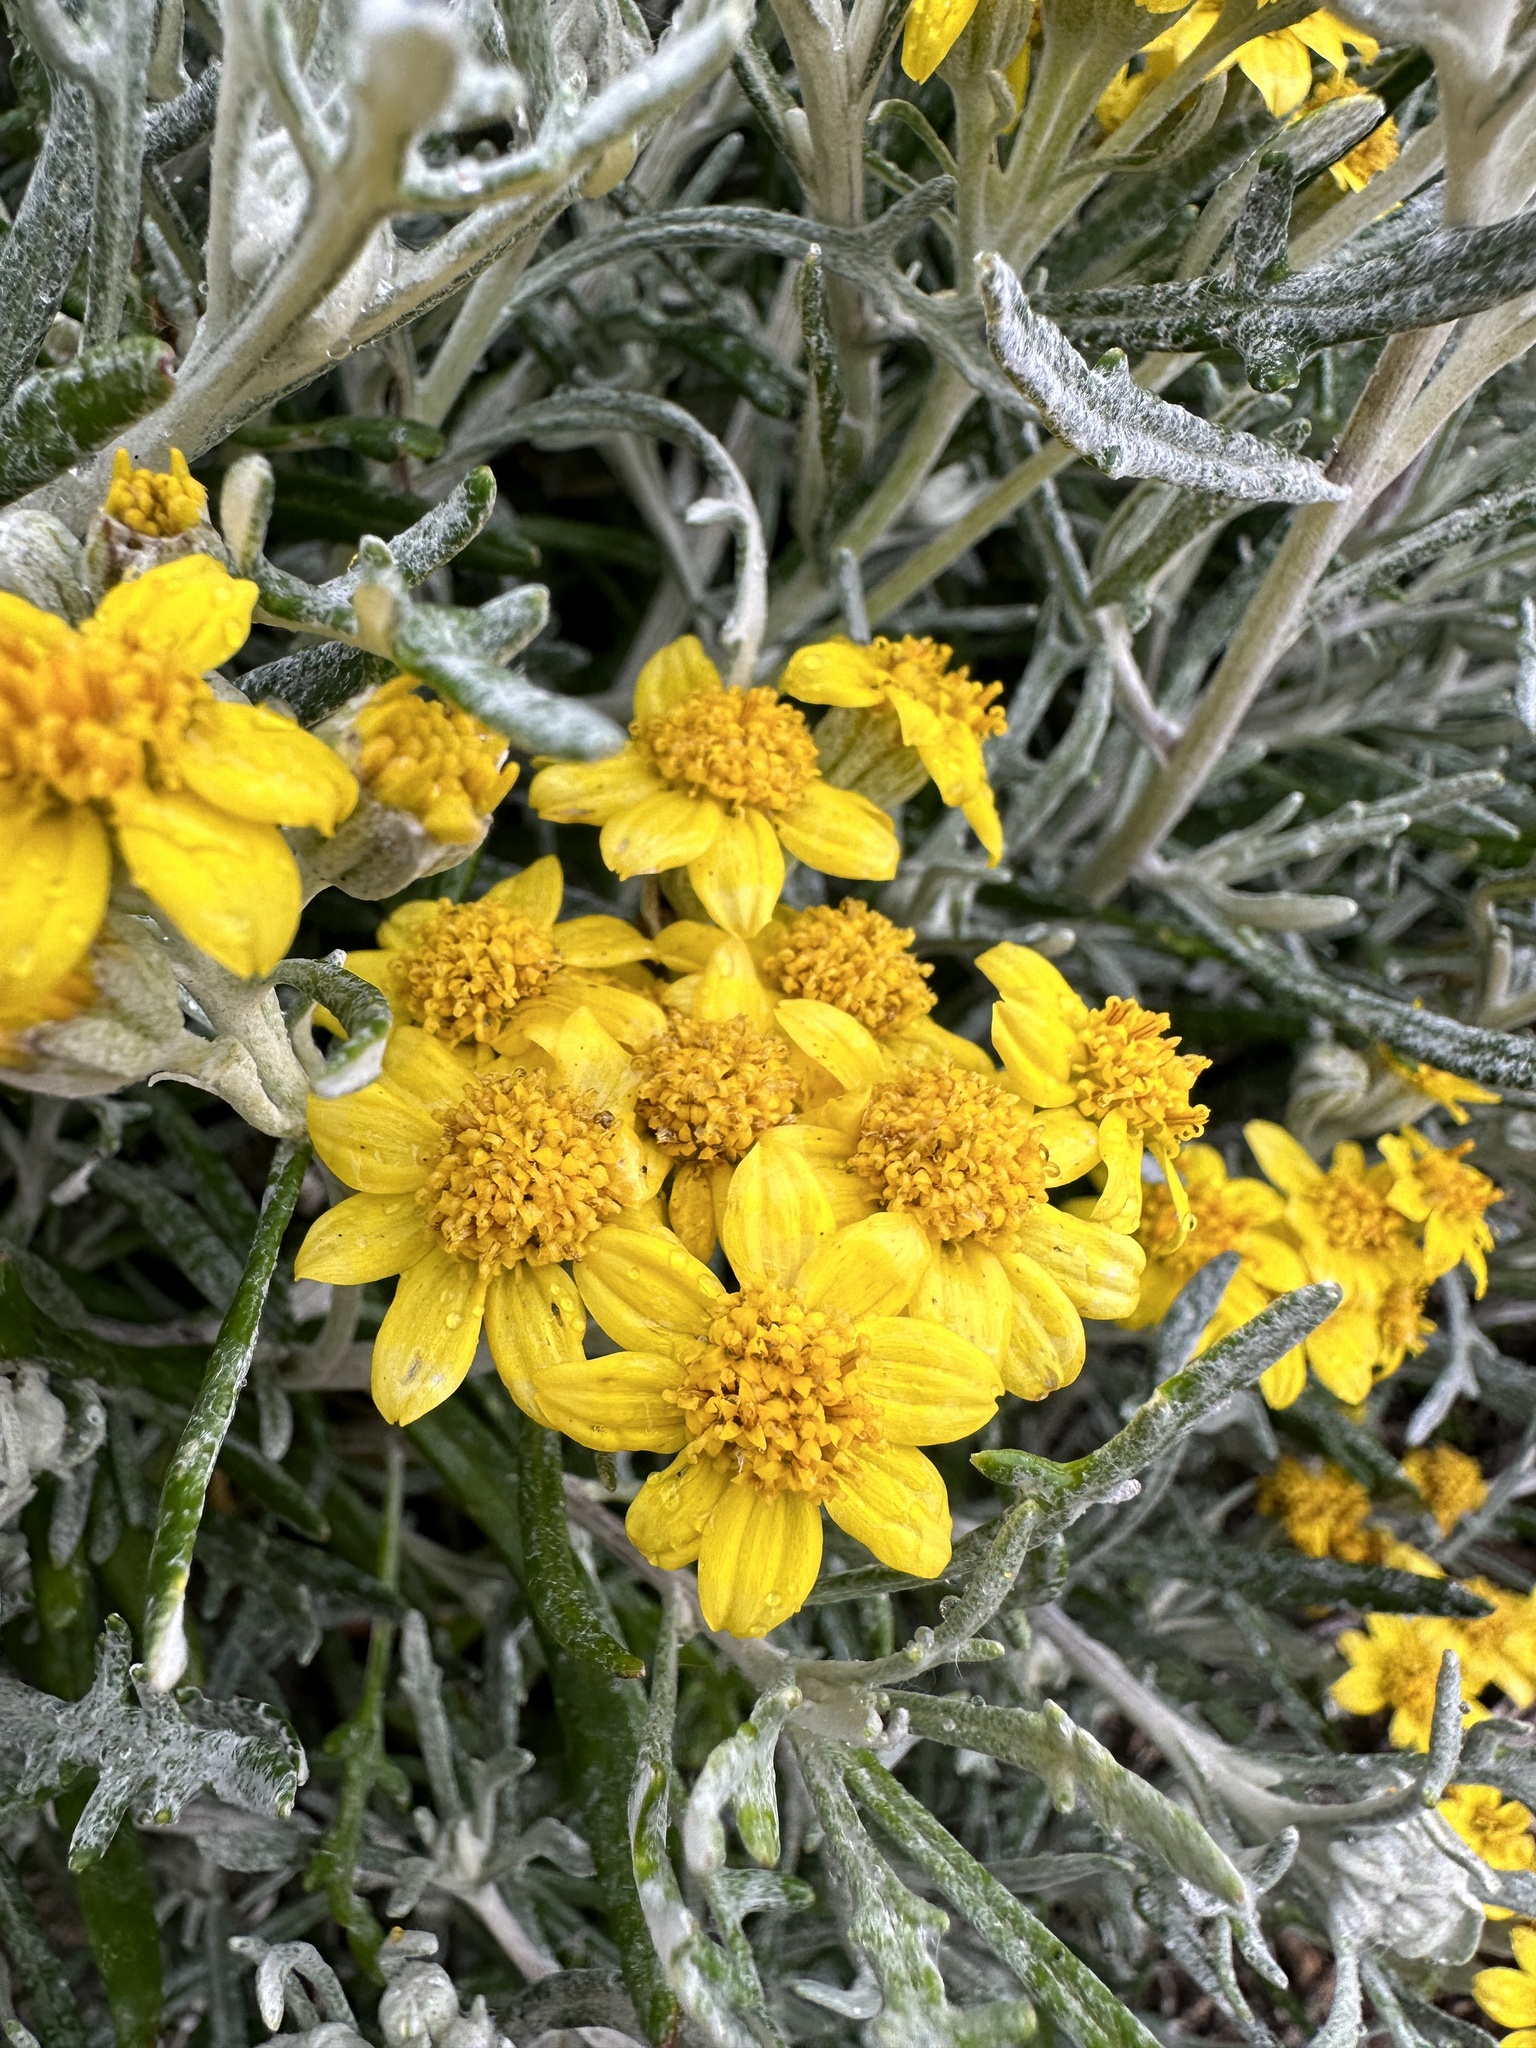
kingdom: Plantae
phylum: Tracheophyta
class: Magnoliopsida
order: Asterales
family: Asteraceae
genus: Eriophyllum
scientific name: Eriophyllum staechadifolium
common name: Lizardtail
